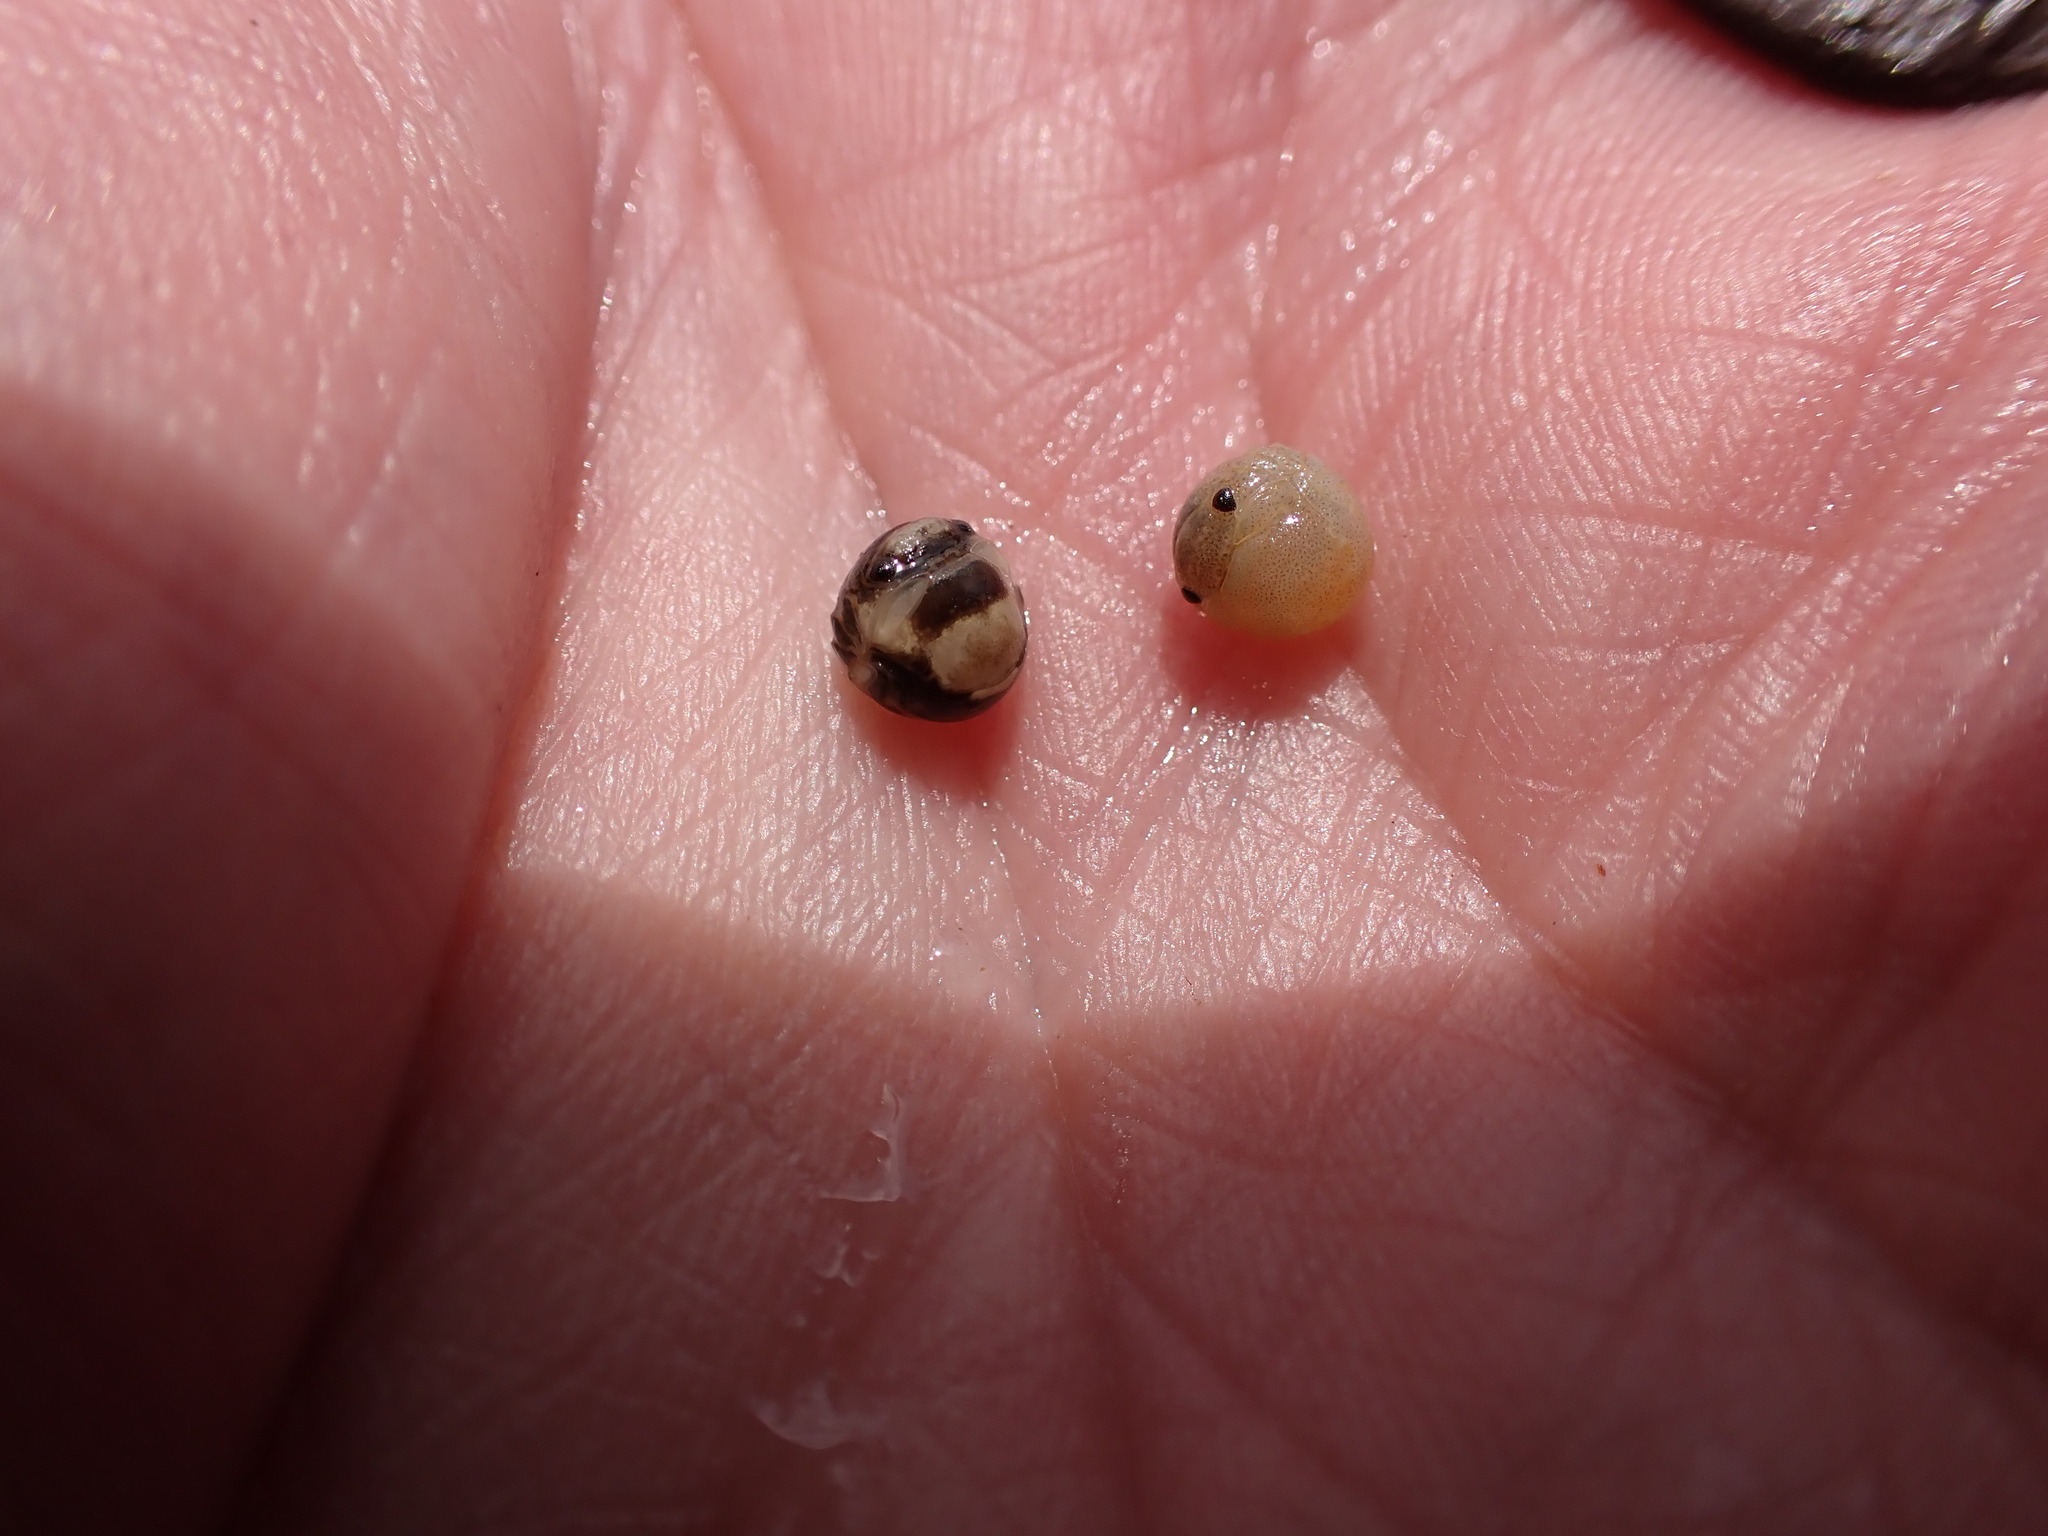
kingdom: Animalia
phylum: Arthropoda
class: Malacostraca
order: Isopoda
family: Sphaeromatidae
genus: Sphaeroma
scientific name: Sphaeroma serratum
